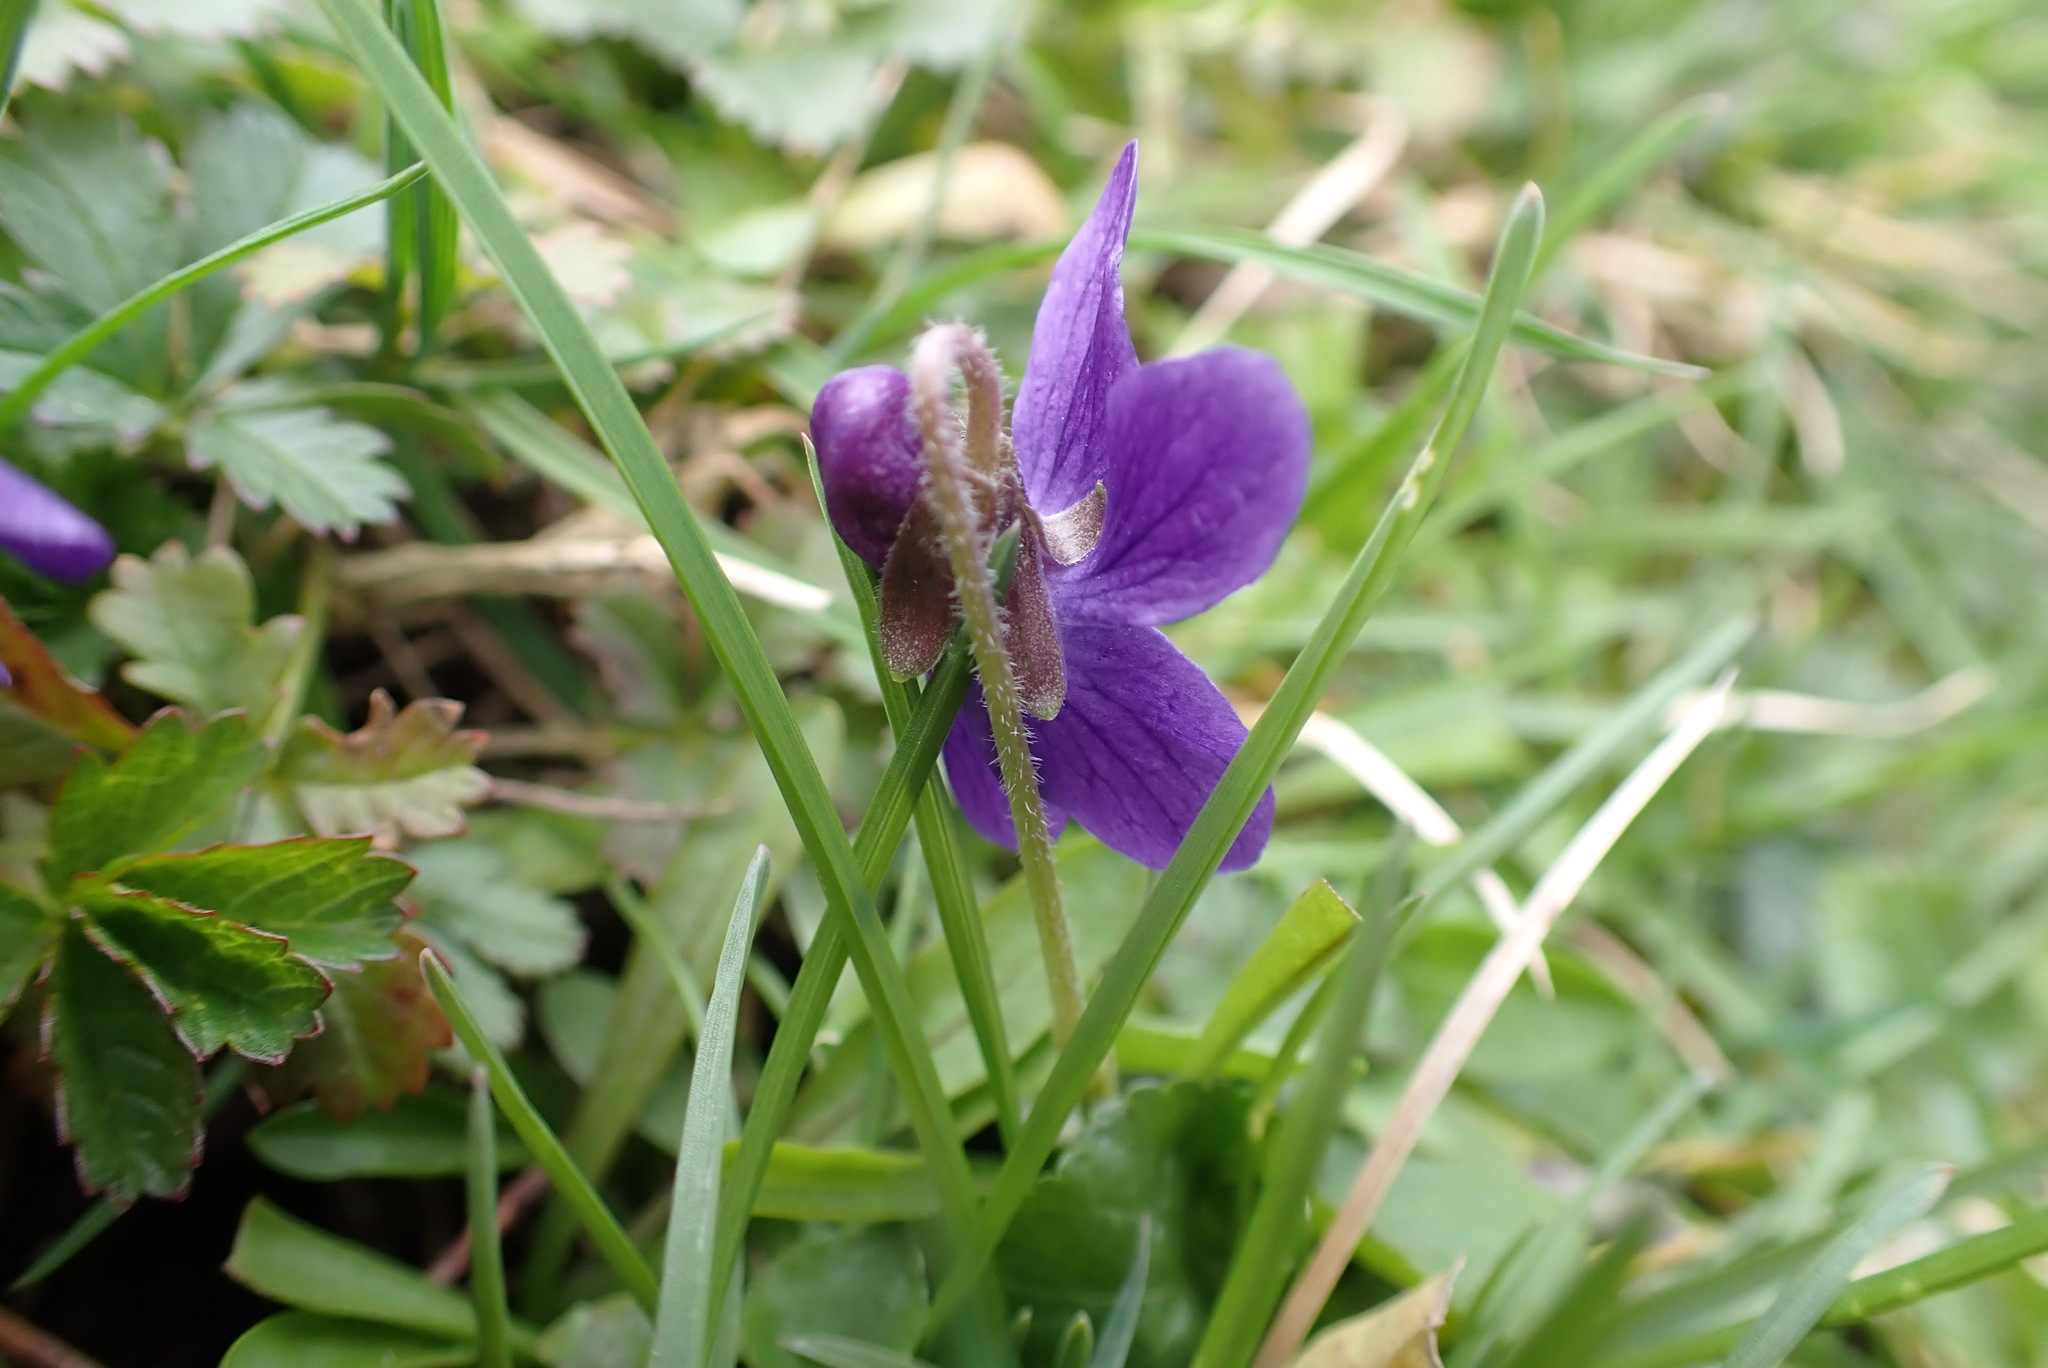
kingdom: Plantae
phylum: Tracheophyta
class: Magnoliopsida
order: Malpighiales
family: Violaceae
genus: Viola
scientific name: Viola odorata
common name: Sweet violet
